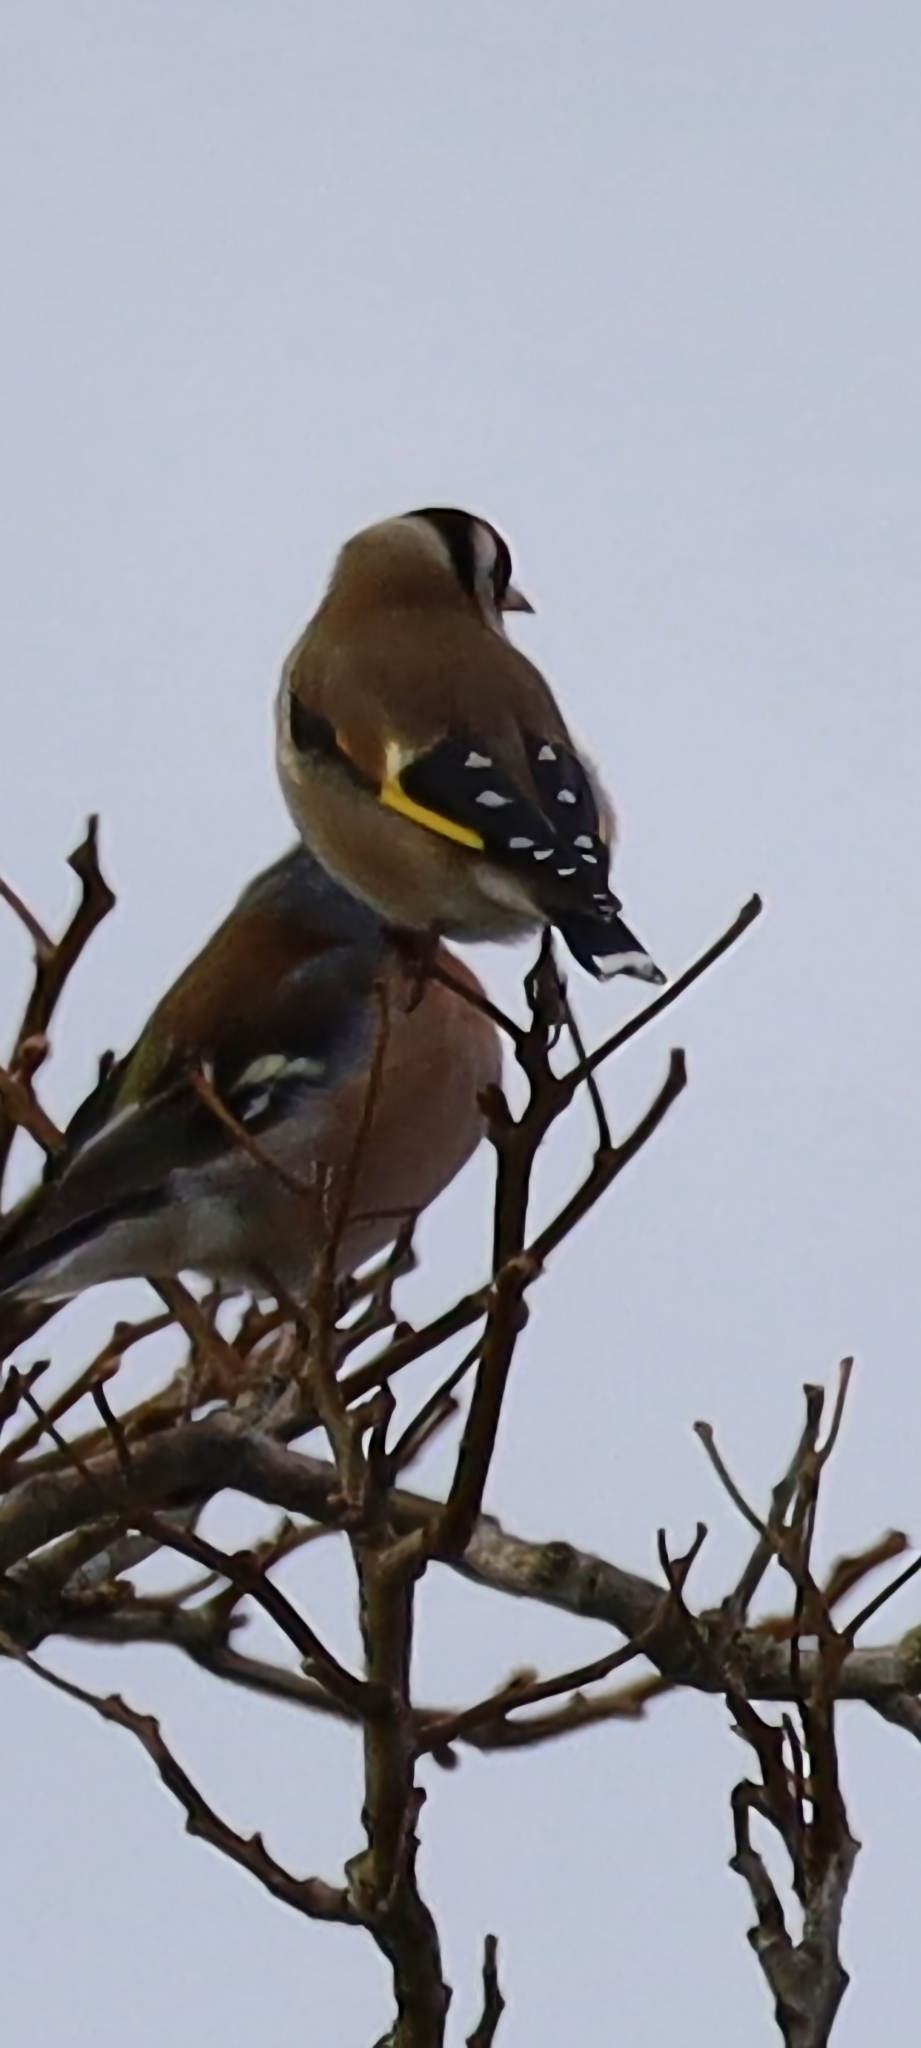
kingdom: Animalia
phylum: Chordata
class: Aves
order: Passeriformes
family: Fringillidae
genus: Carduelis
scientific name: Carduelis carduelis
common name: European goldfinch
